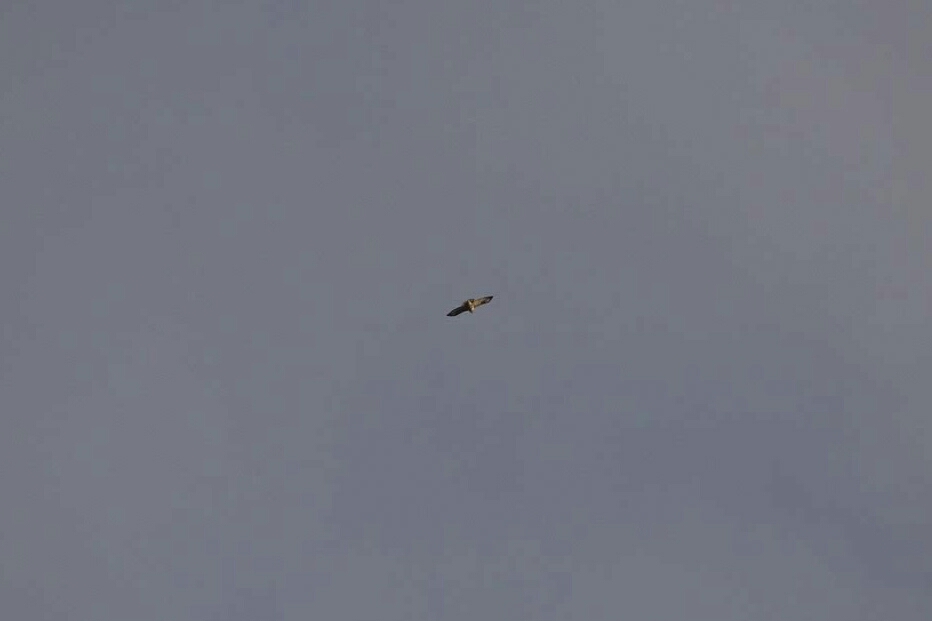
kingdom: Animalia
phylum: Chordata
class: Aves
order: Accipitriformes
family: Accipitridae
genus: Buteo
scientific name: Buteo buteo
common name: Common buzzard
